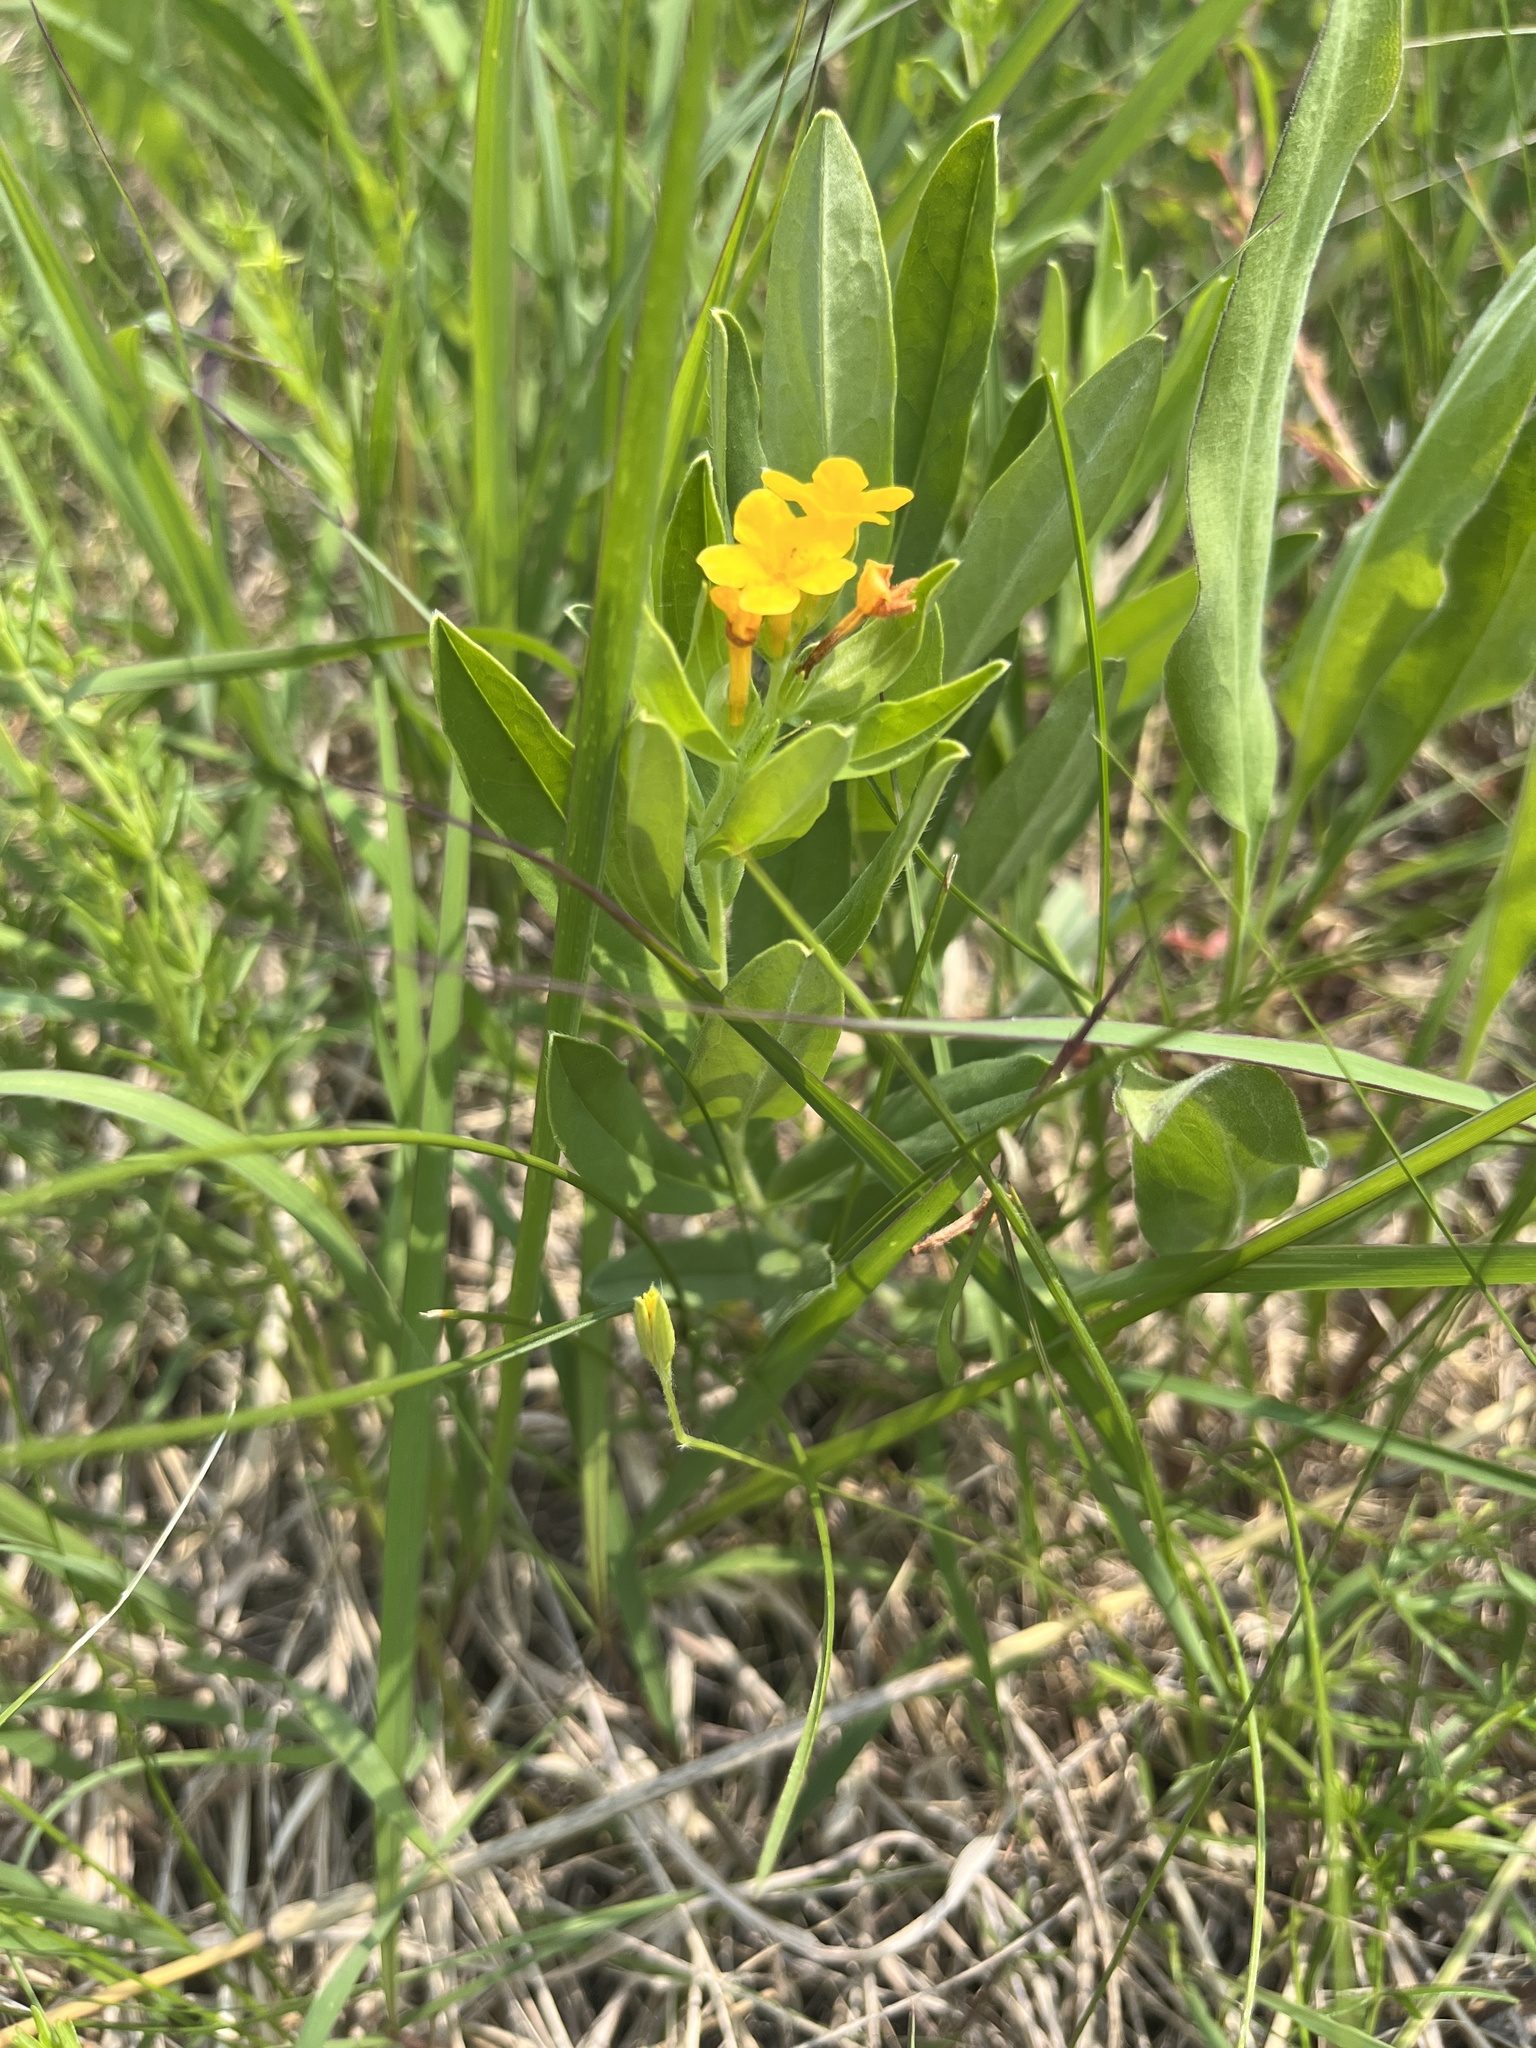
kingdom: Plantae
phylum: Tracheophyta
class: Magnoliopsida
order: Boraginales
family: Boraginaceae
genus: Lithospermum
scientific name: Lithospermum canescens
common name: Hoary puccoon
